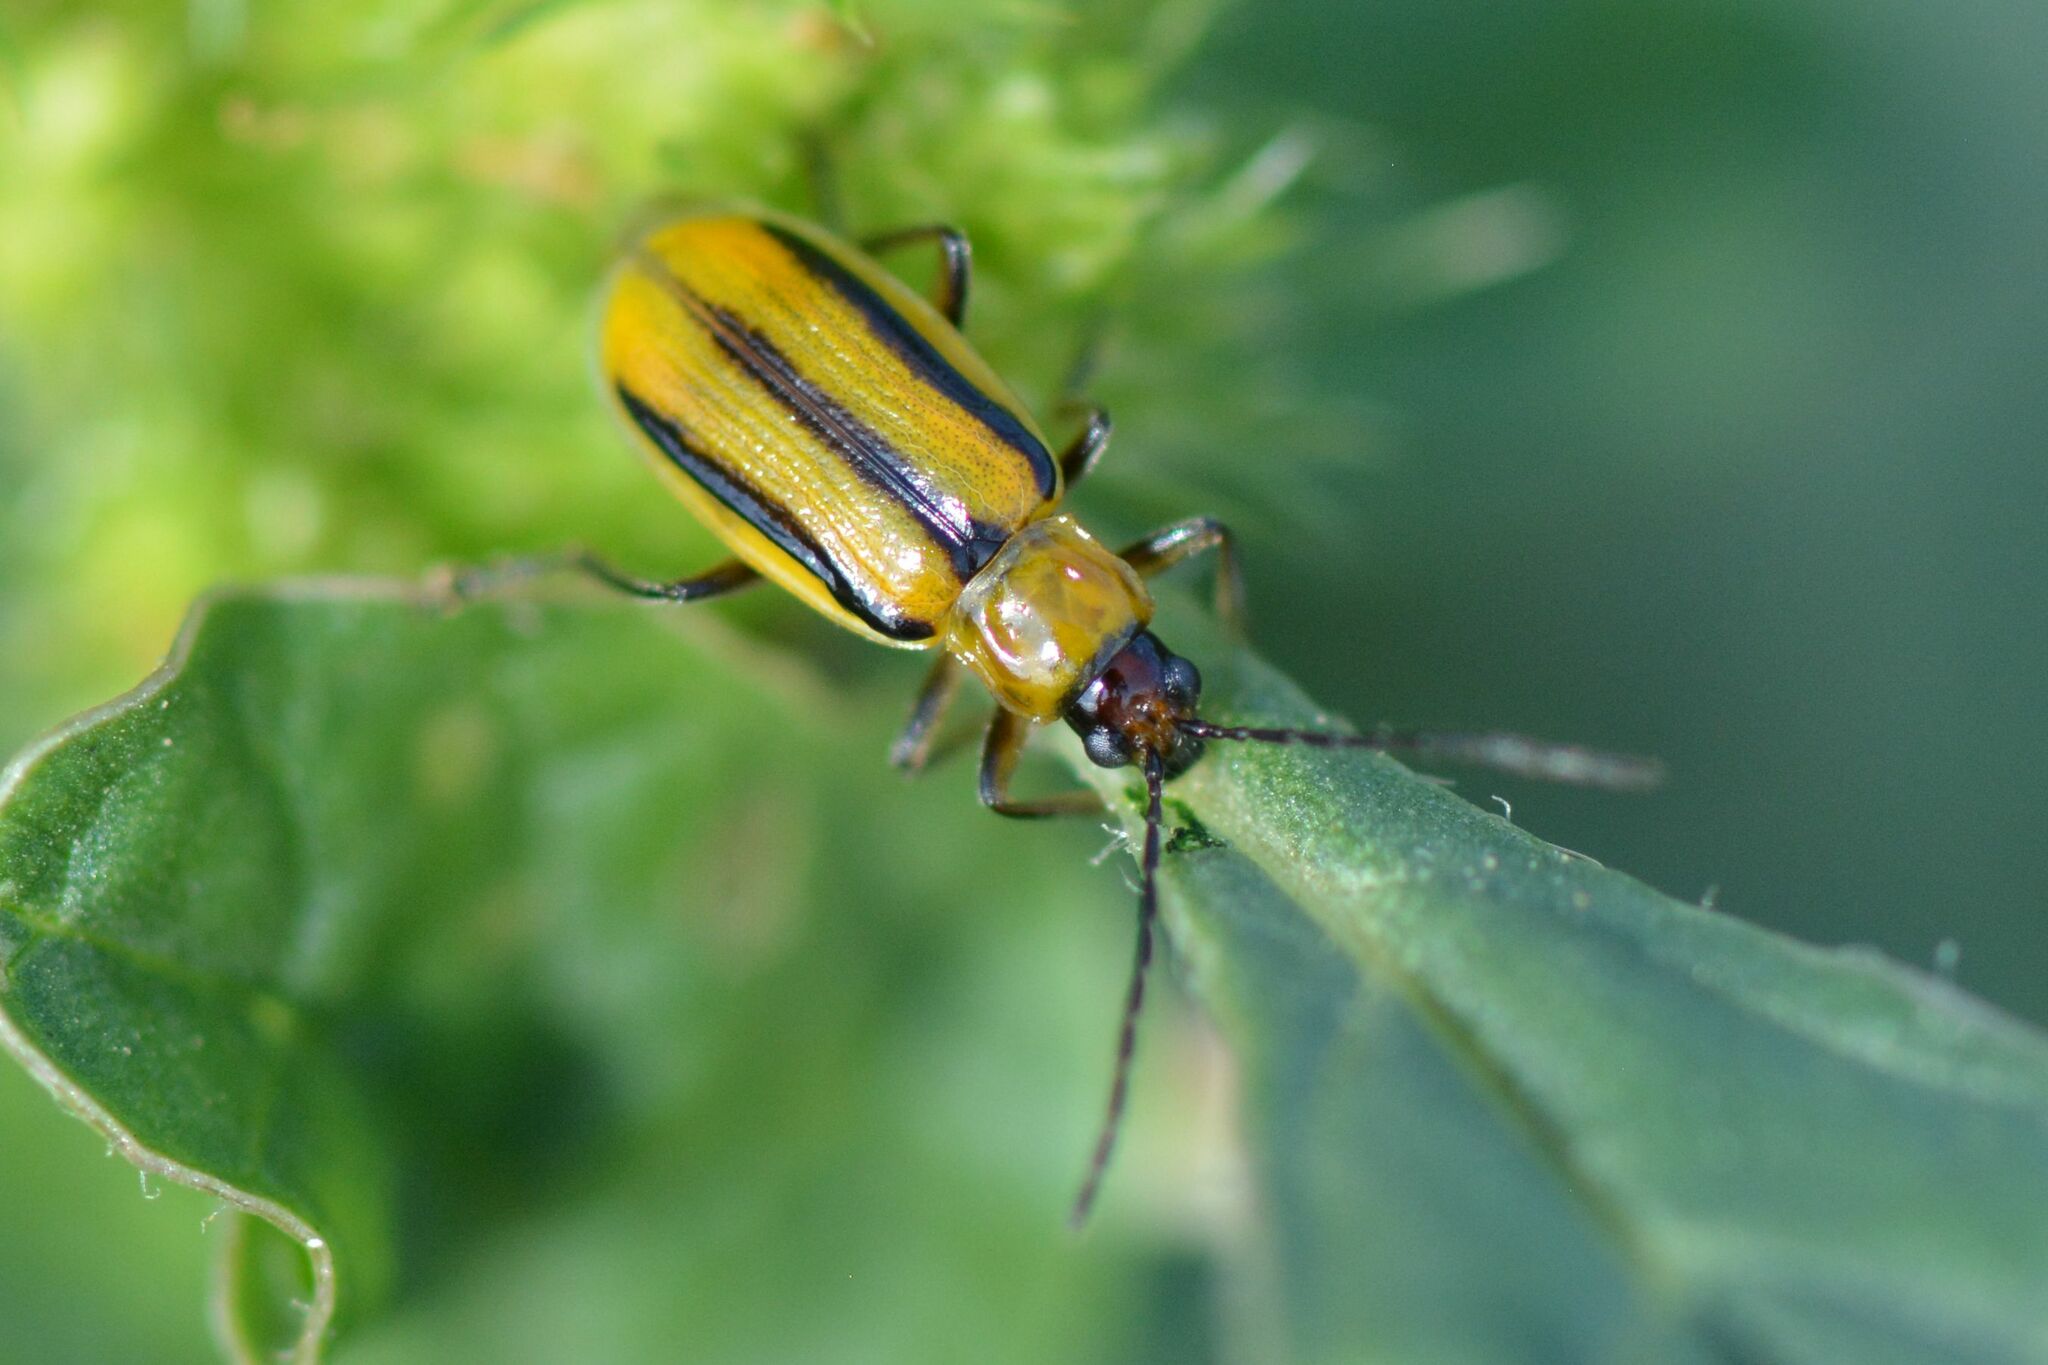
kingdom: Animalia
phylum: Arthropoda
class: Insecta
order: Coleoptera
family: Chrysomelidae
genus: Diabrotica
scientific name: Diabrotica virgifera
